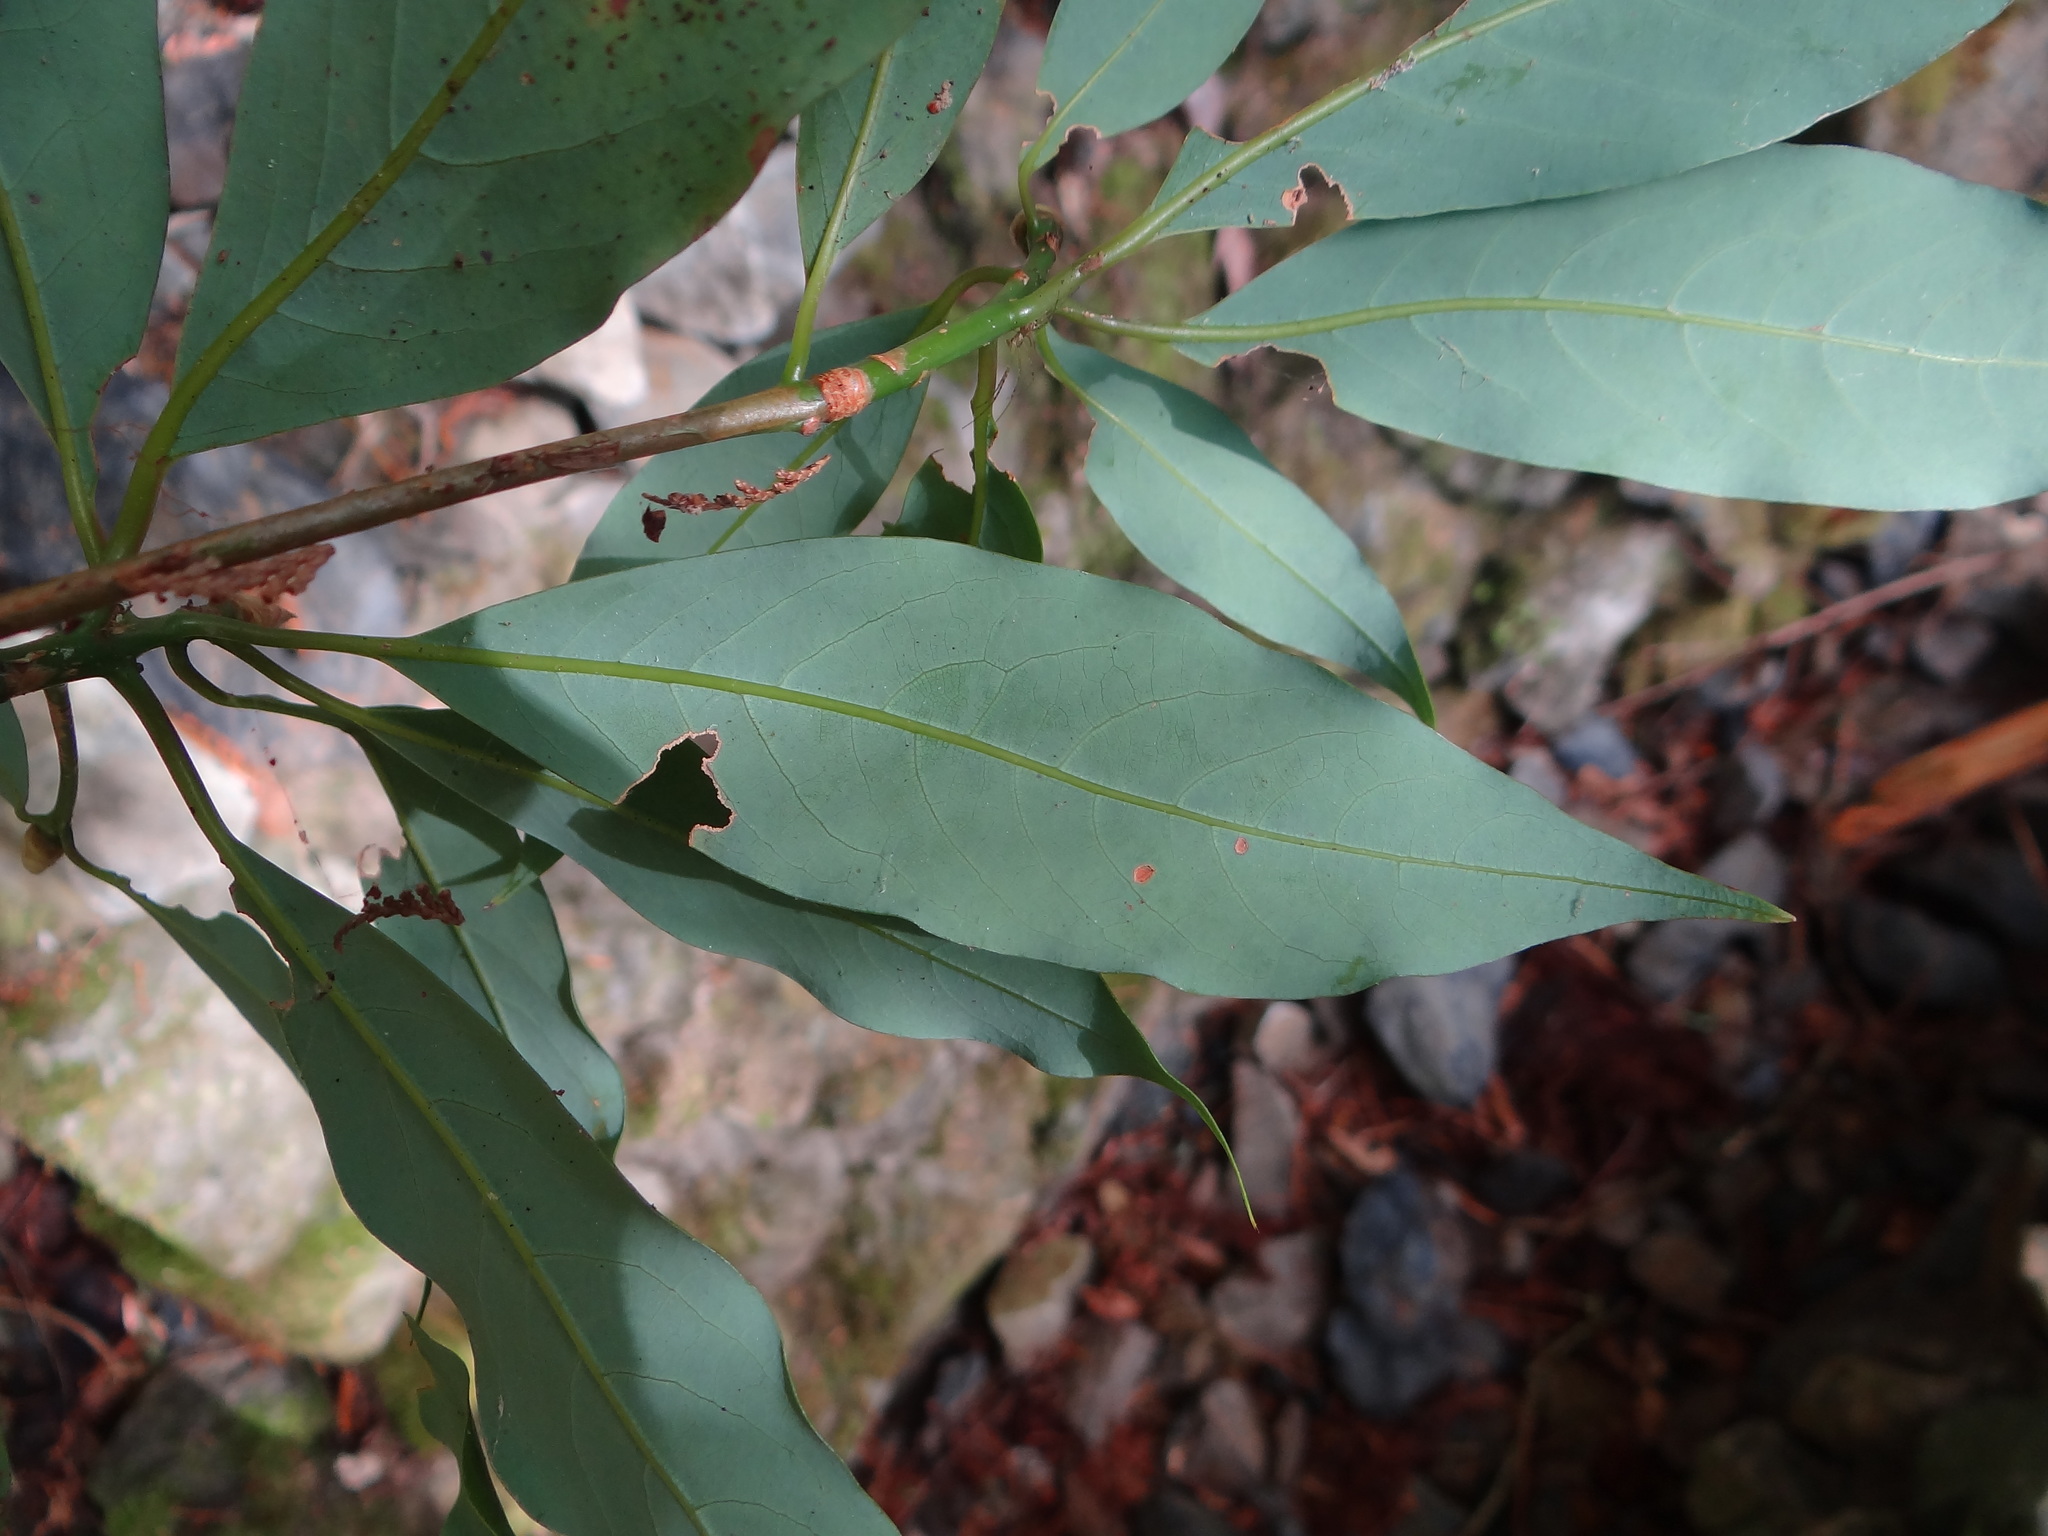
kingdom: Plantae
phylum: Tracheophyta
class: Magnoliopsida
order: Laurales
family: Lauraceae
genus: Machilus
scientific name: Machilus japonica
